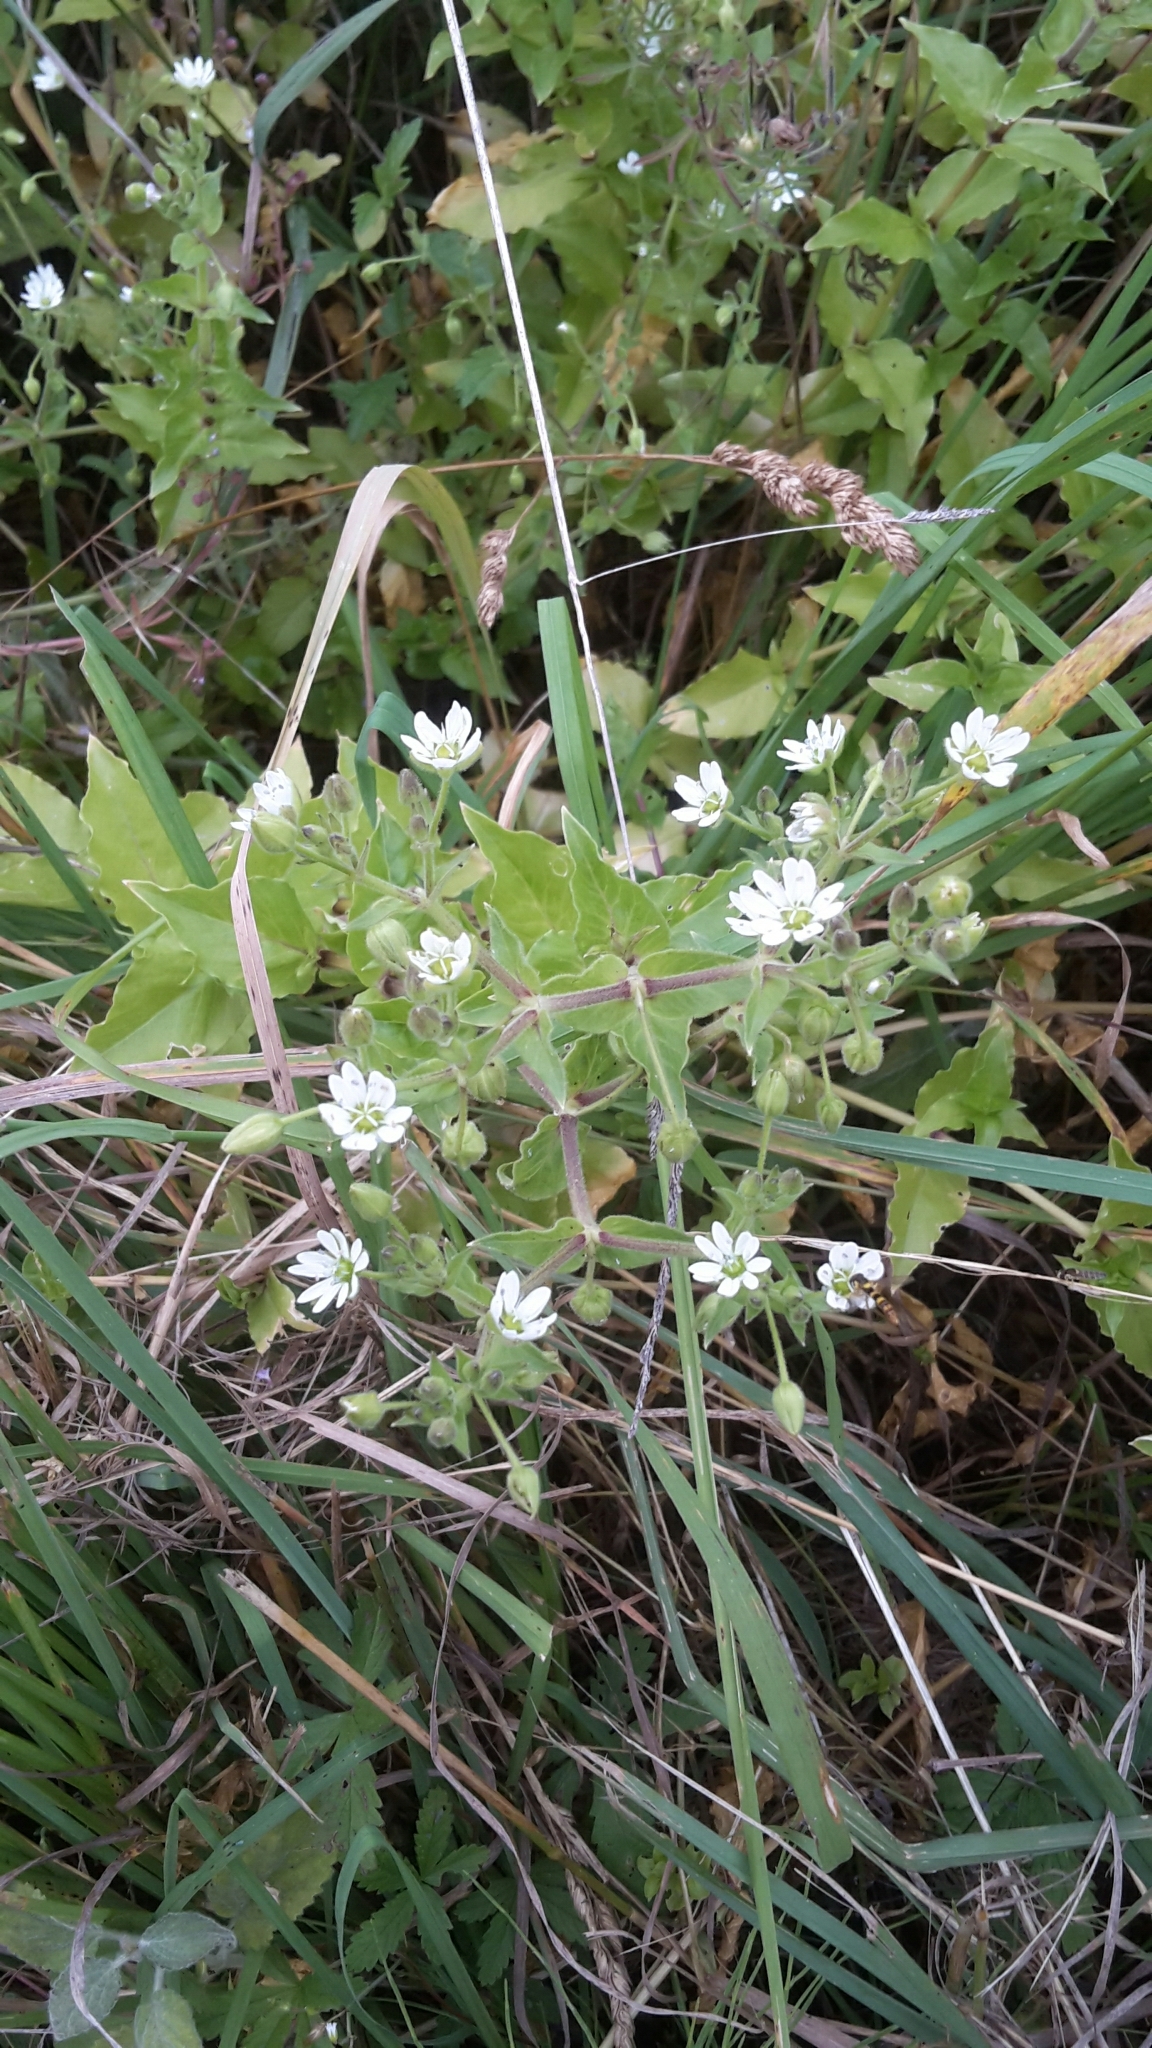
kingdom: Plantae
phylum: Tracheophyta
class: Magnoliopsida
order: Caryophyllales
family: Caryophyllaceae
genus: Stellaria
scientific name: Stellaria aquatica
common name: Water chickweed
